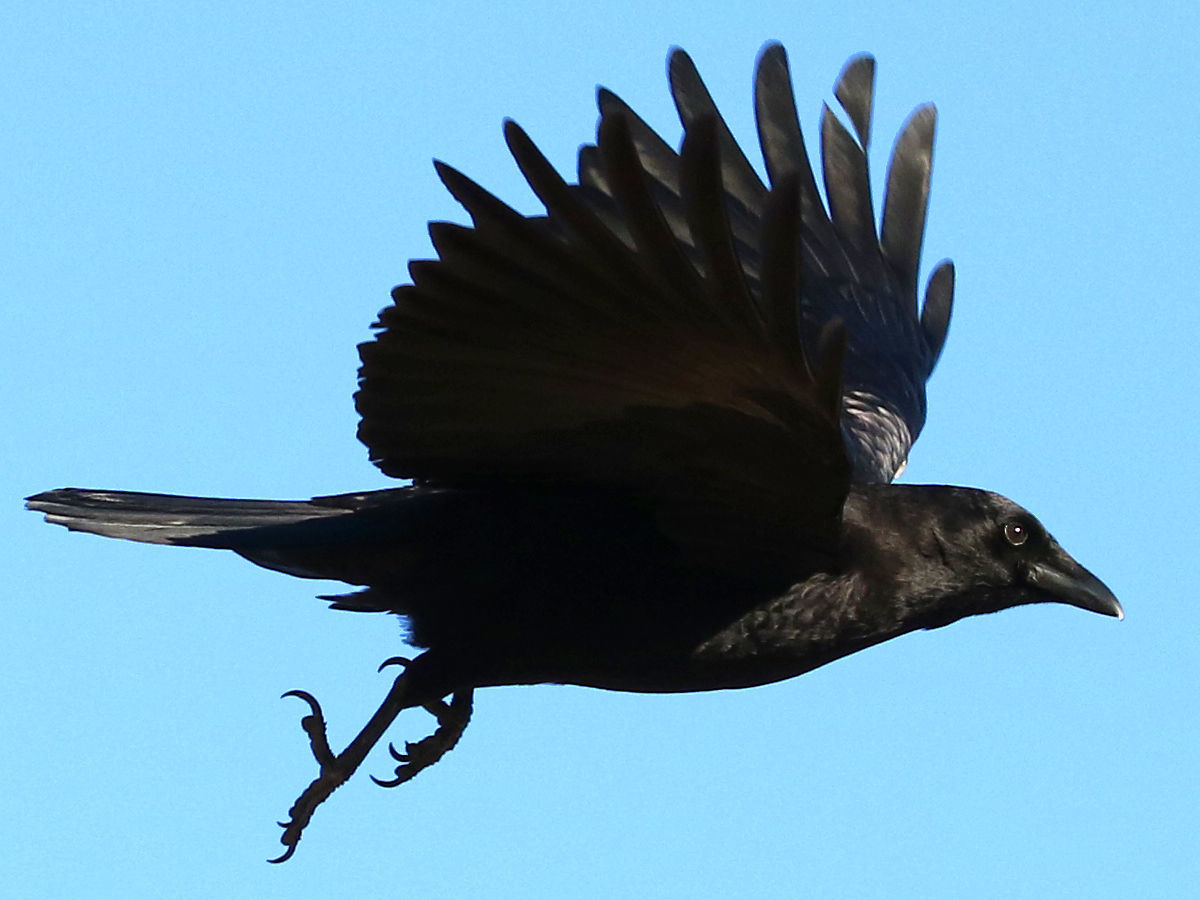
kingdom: Animalia
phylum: Chordata
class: Aves
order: Passeriformes
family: Corvidae
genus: Corvus
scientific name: Corvus brachyrhynchos
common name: American crow
